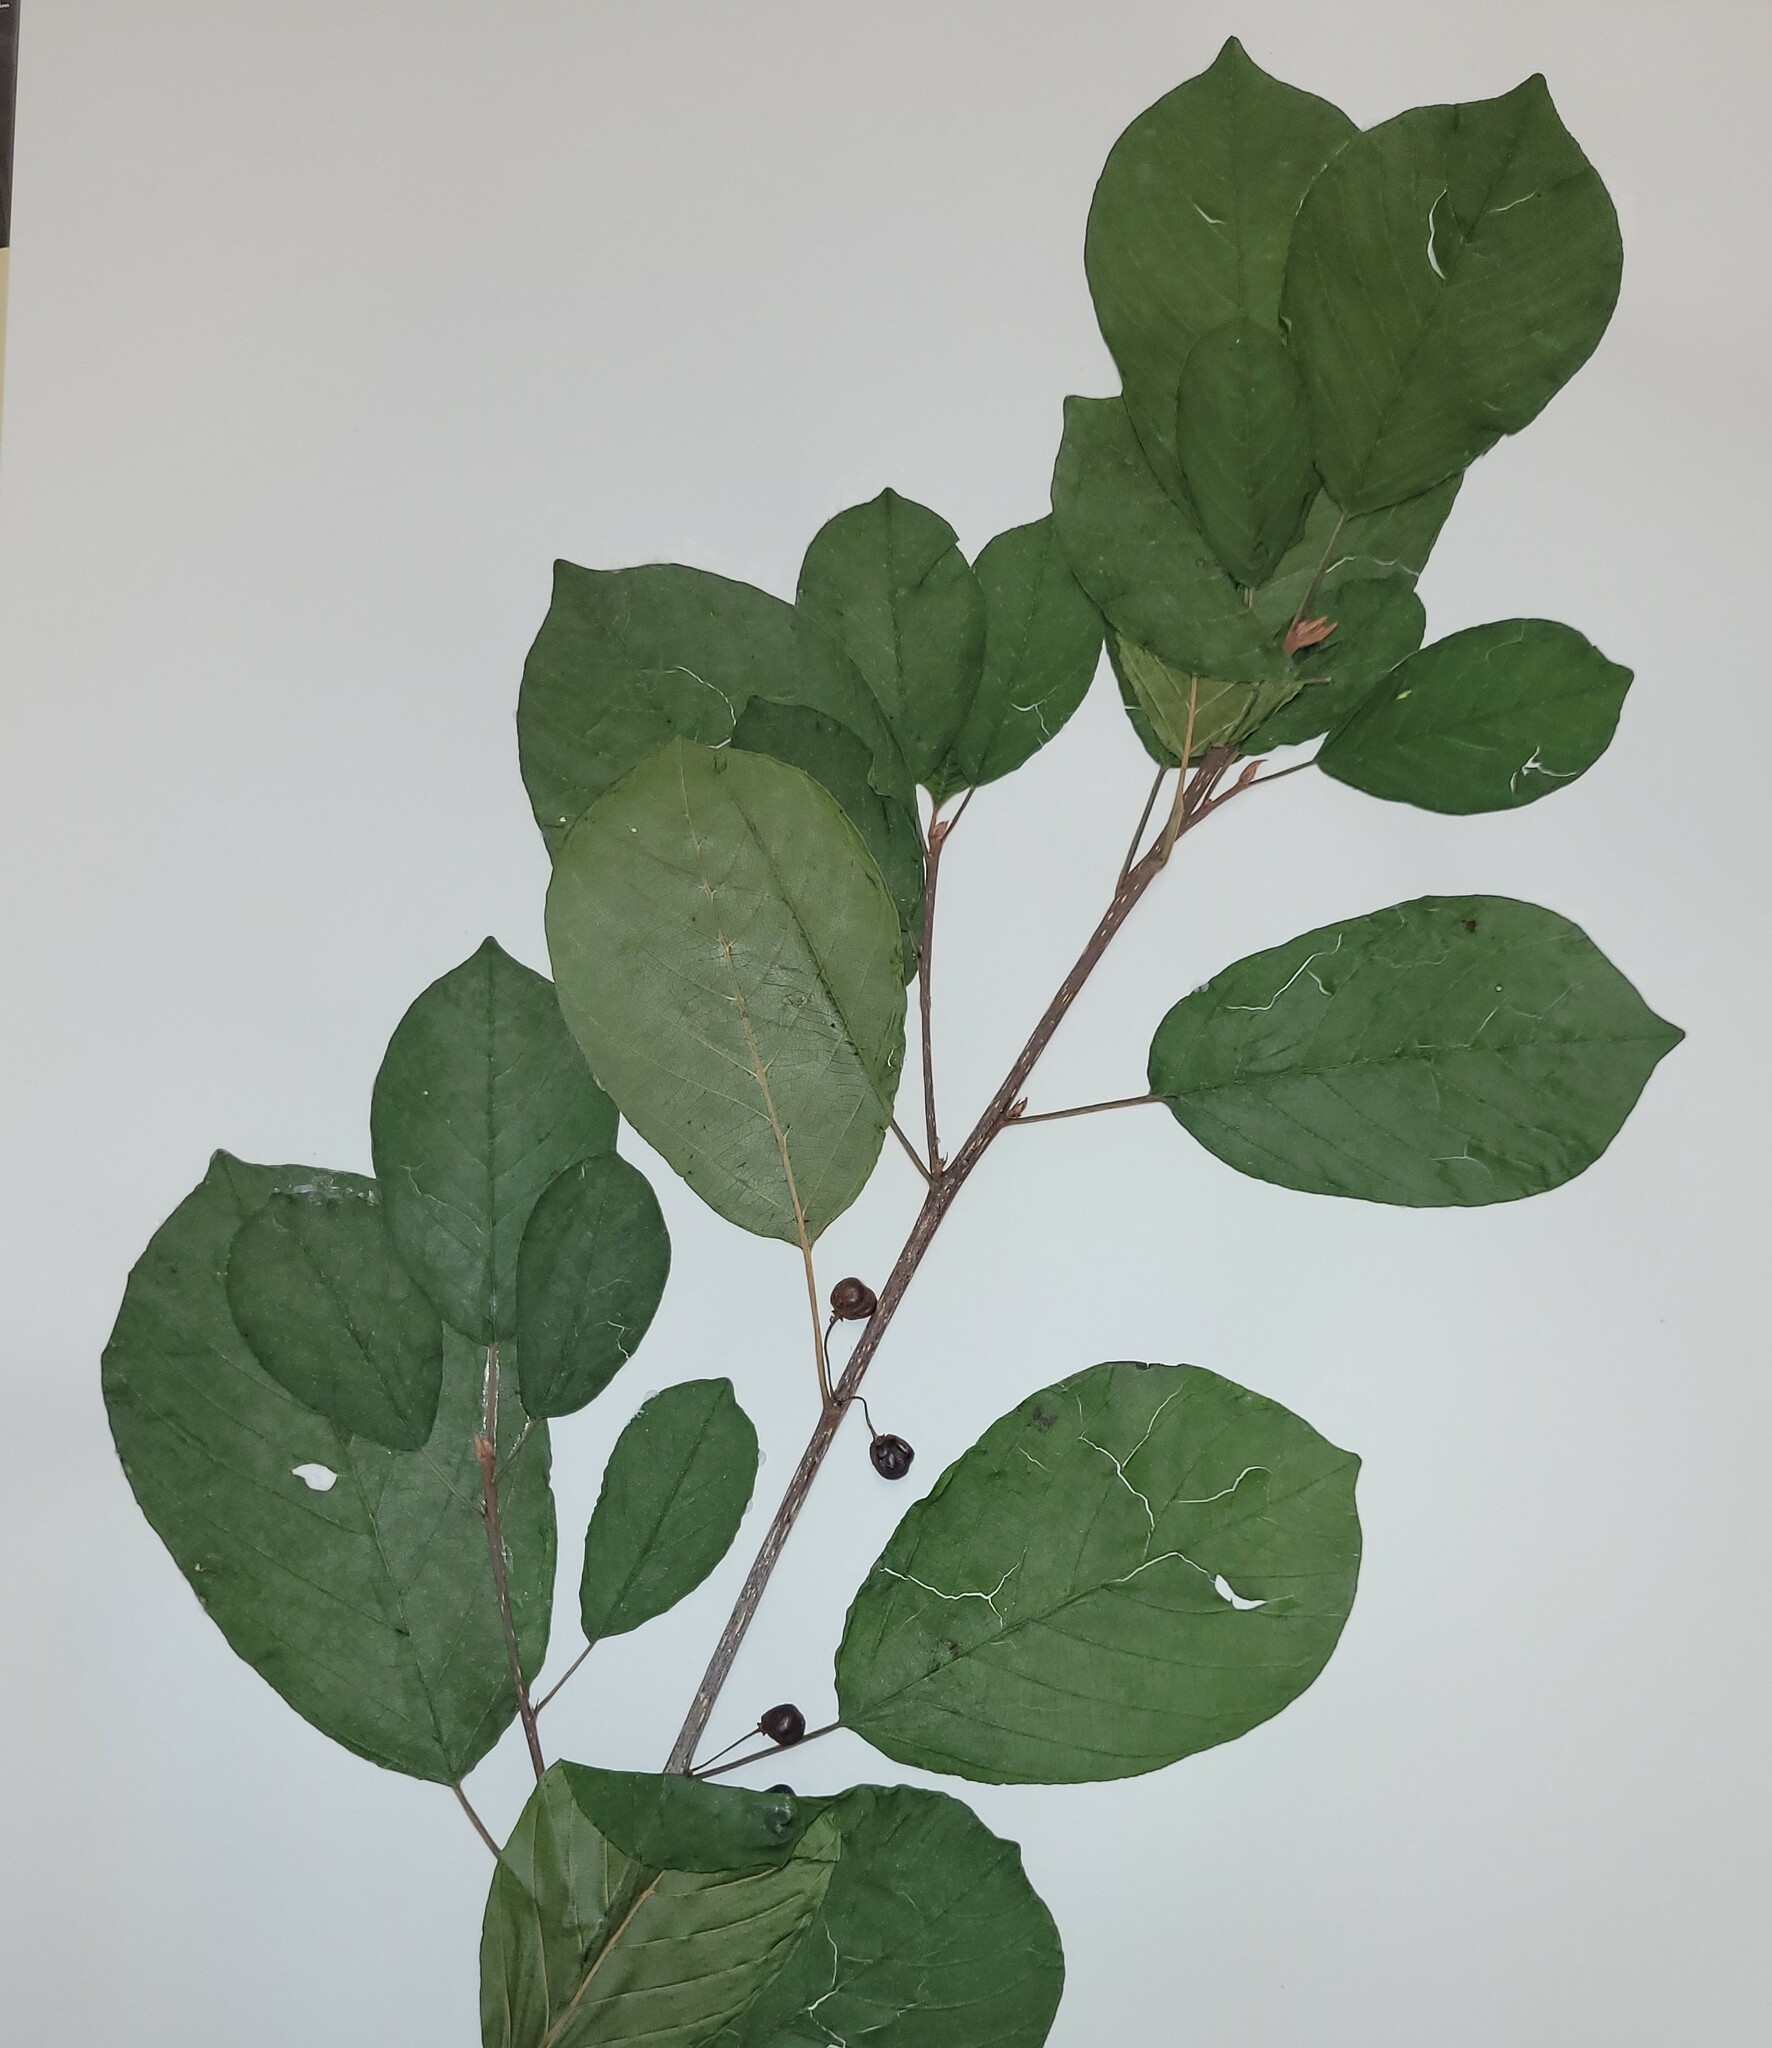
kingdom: Plantae
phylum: Tracheophyta
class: Magnoliopsida
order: Rosales
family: Rhamnaceae
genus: Frangula
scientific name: Frangula alnus
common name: Alder buckthorn
